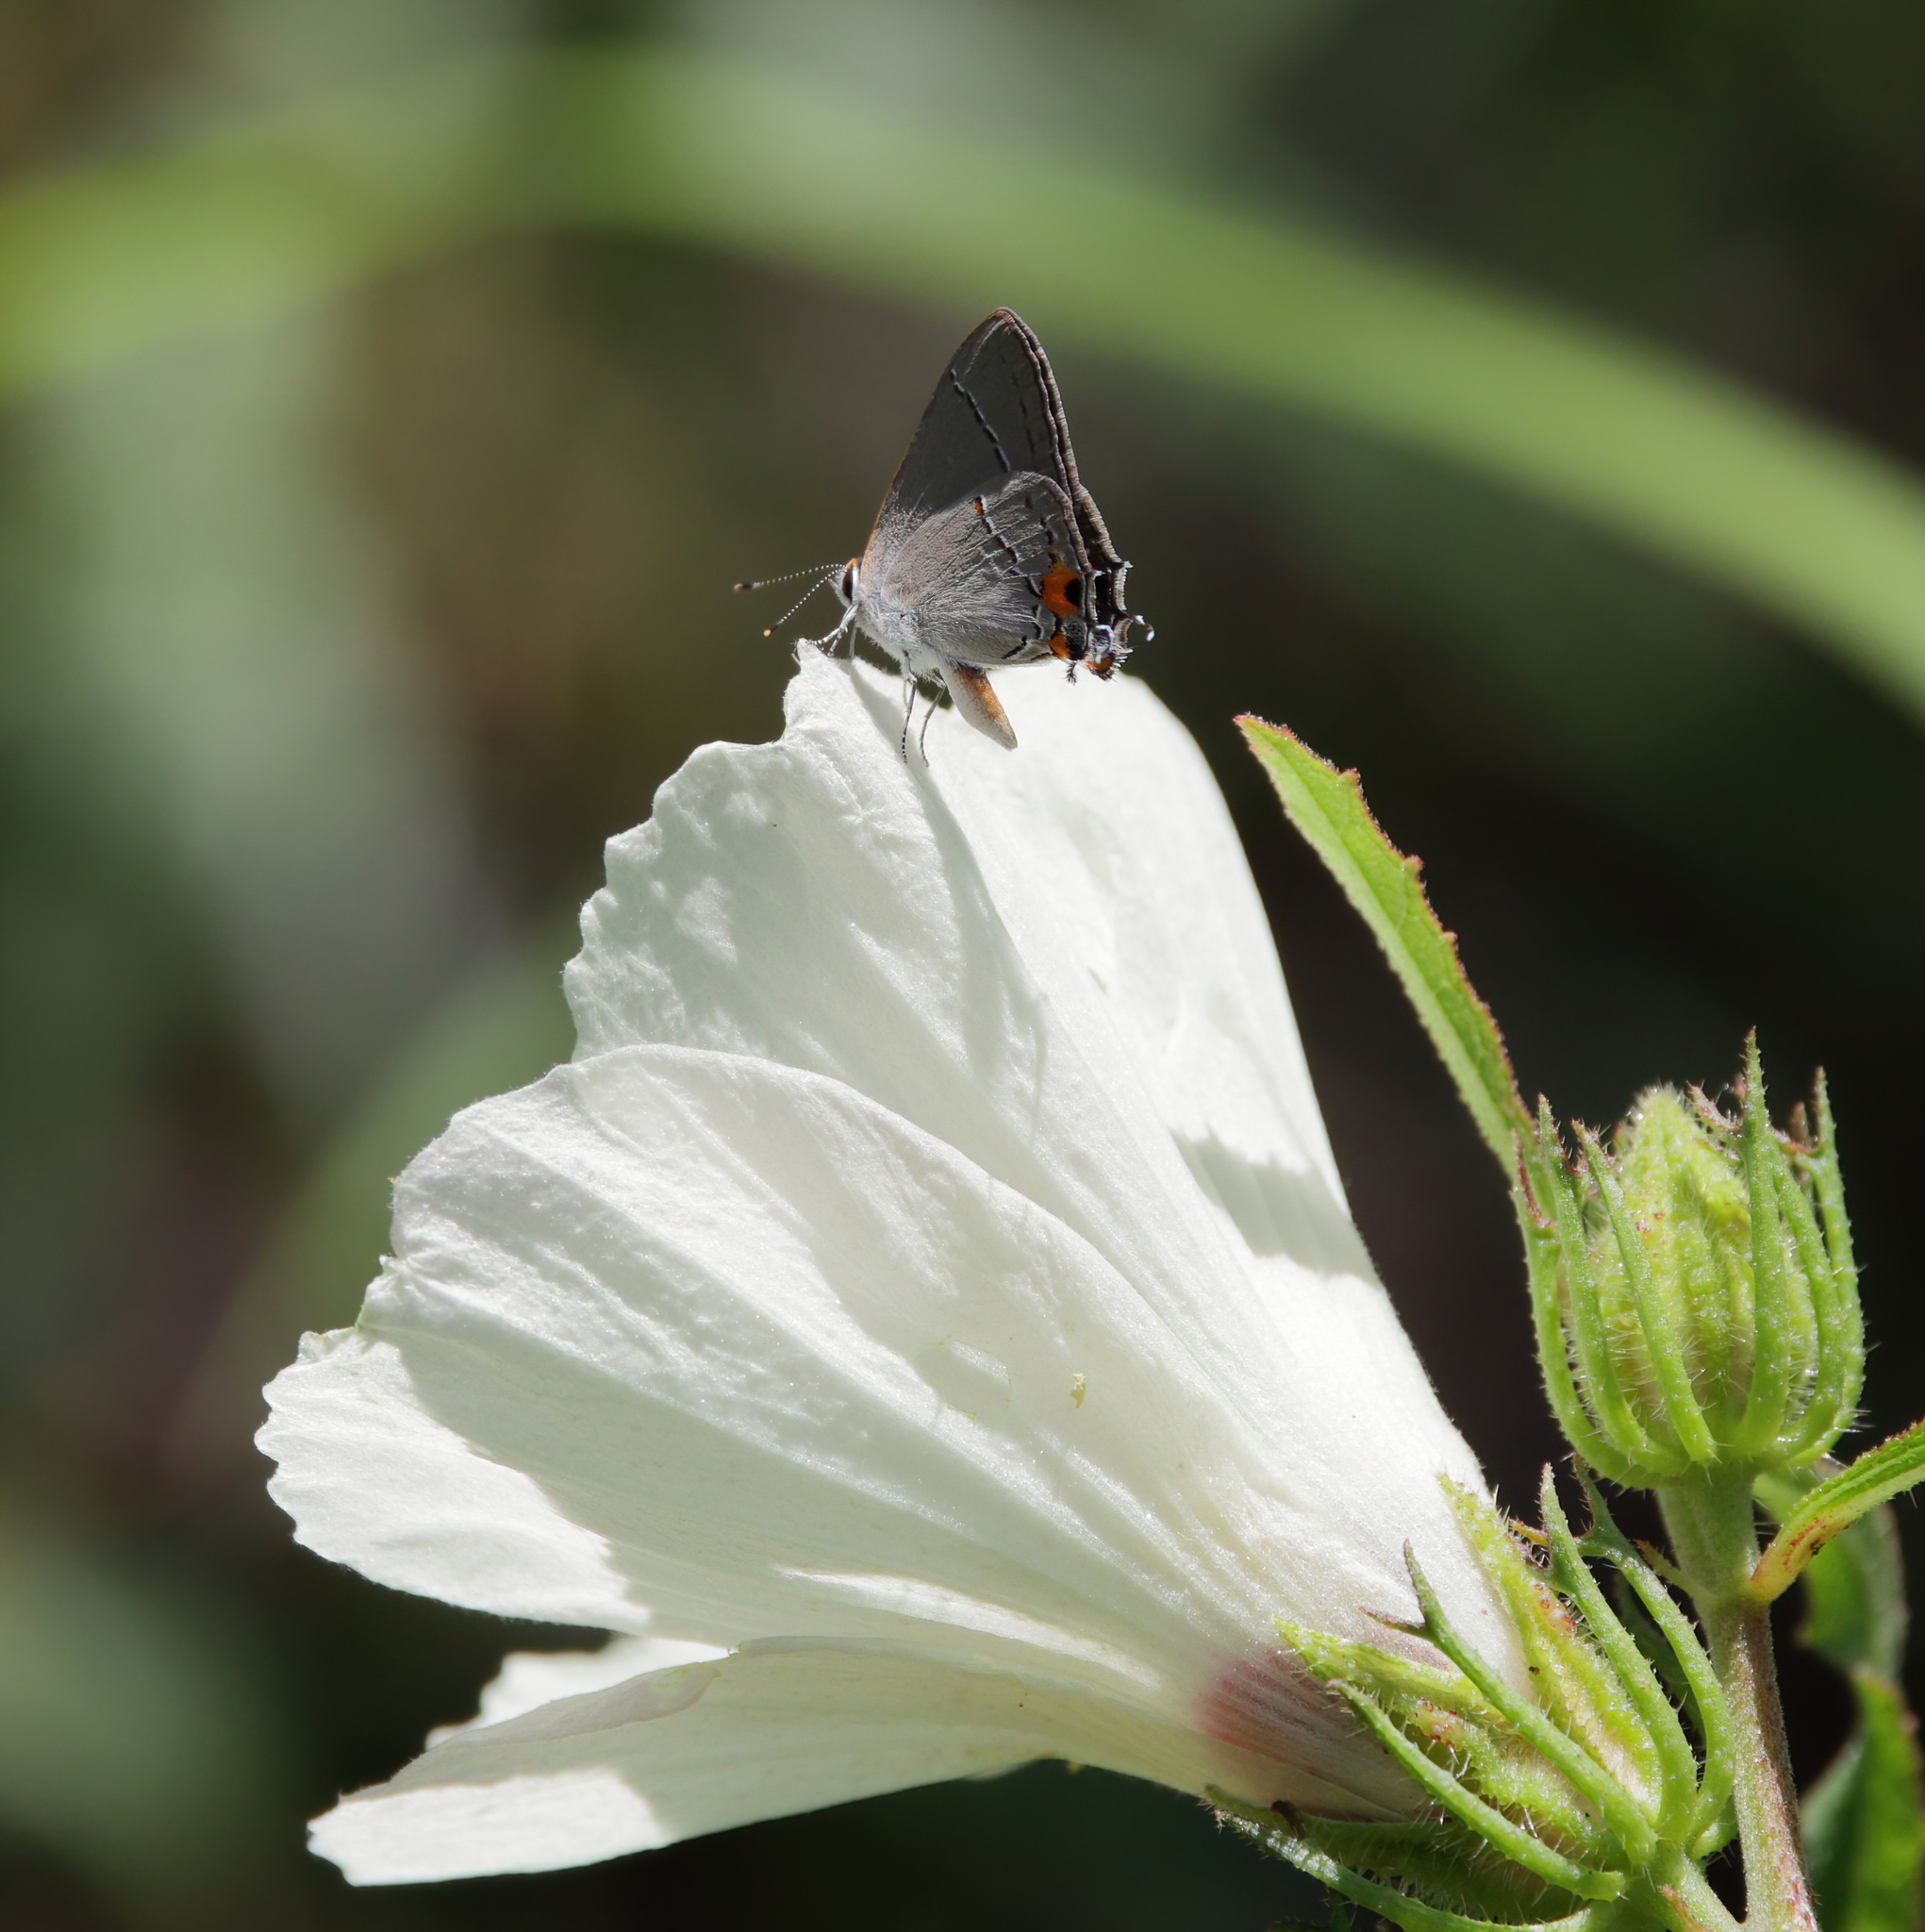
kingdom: Animalia
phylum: Arthropoda
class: Insecta
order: Lepidoptera
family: Lycaenidae
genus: Strymon
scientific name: Strymon melinus
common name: Gray hairstreak
